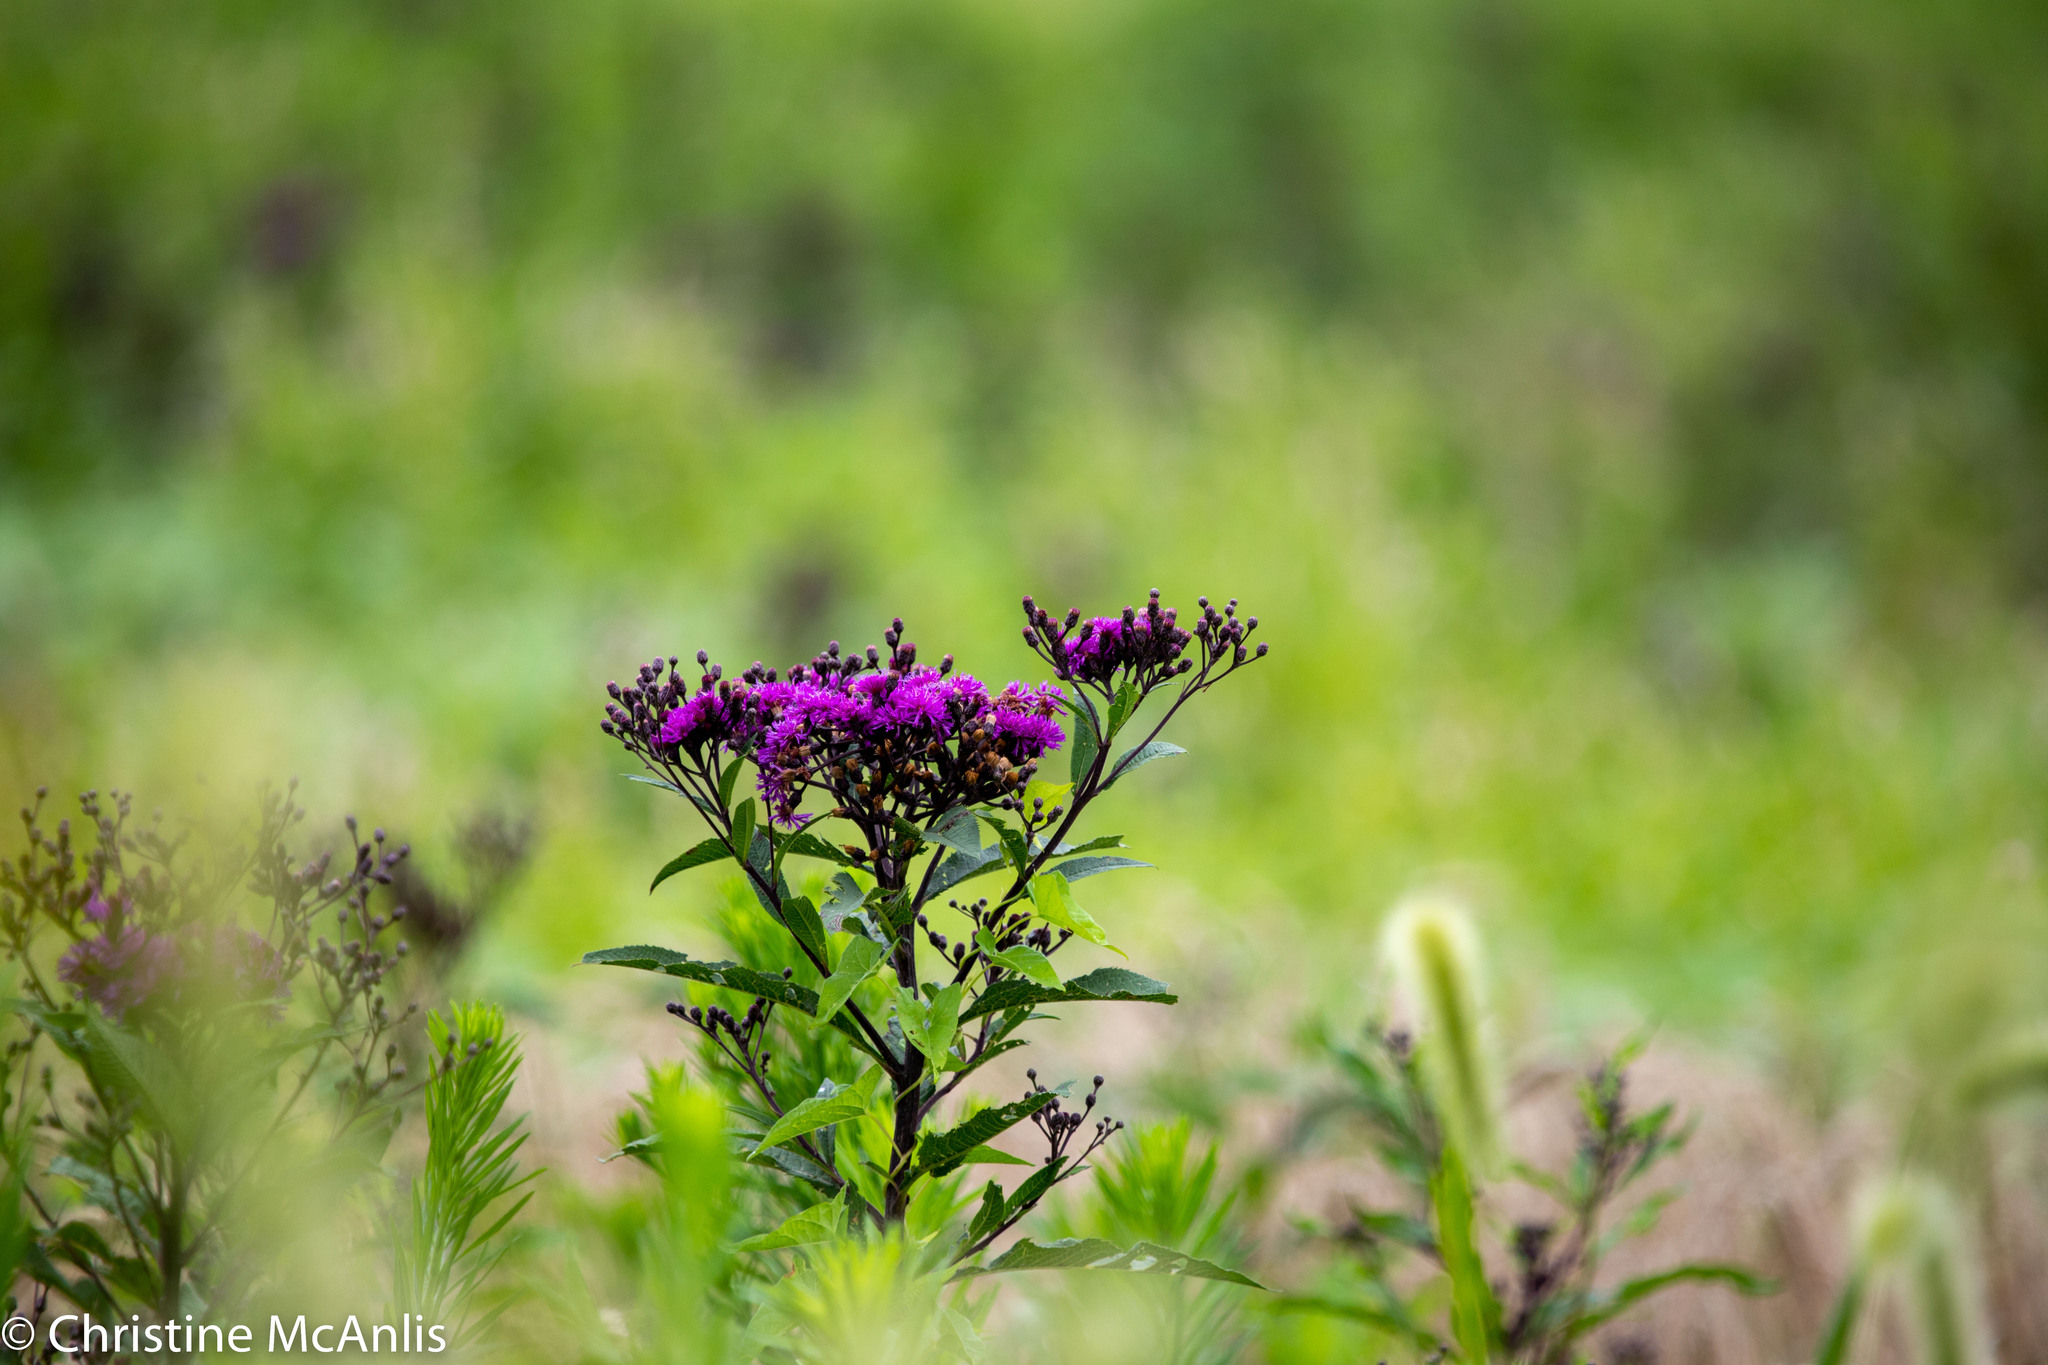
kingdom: Plantae
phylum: Tracheophyta
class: Magnoliopsida
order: Asterales
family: Asteraceae
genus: Vernonia
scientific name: Vernonia gigantea
